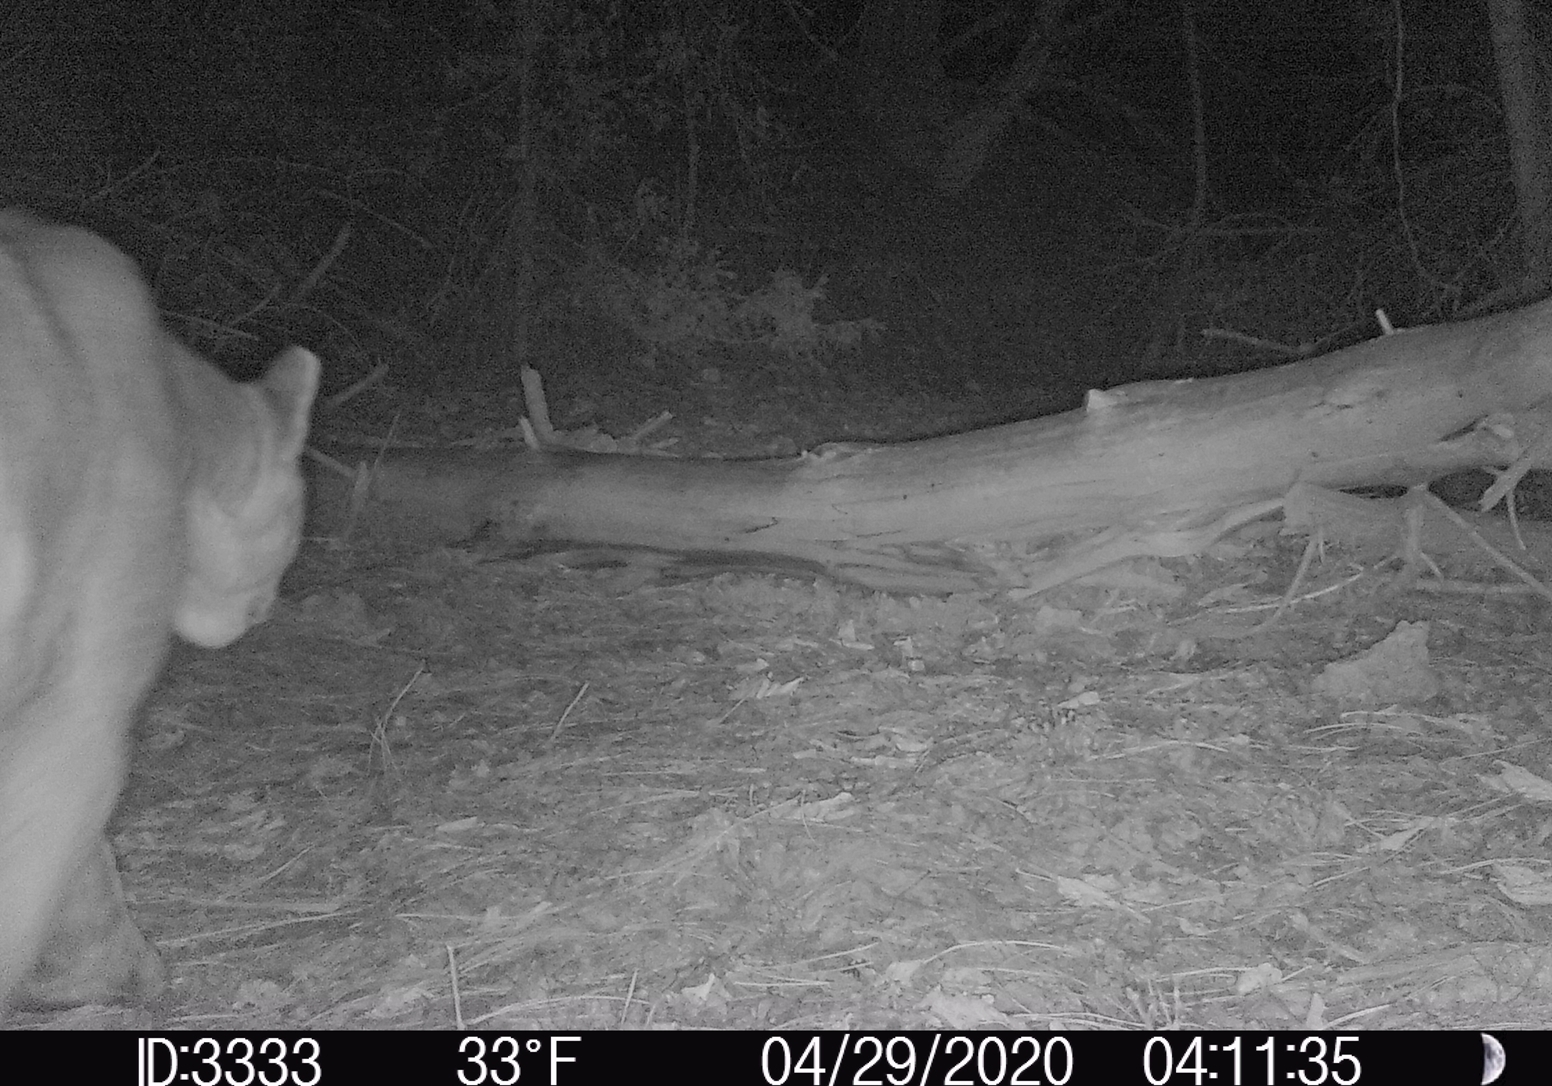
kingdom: Animalia
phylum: Chordata
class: Mammalia
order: Carnivora
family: Felidae
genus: Puma
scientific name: Puma concolor
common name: Puma
